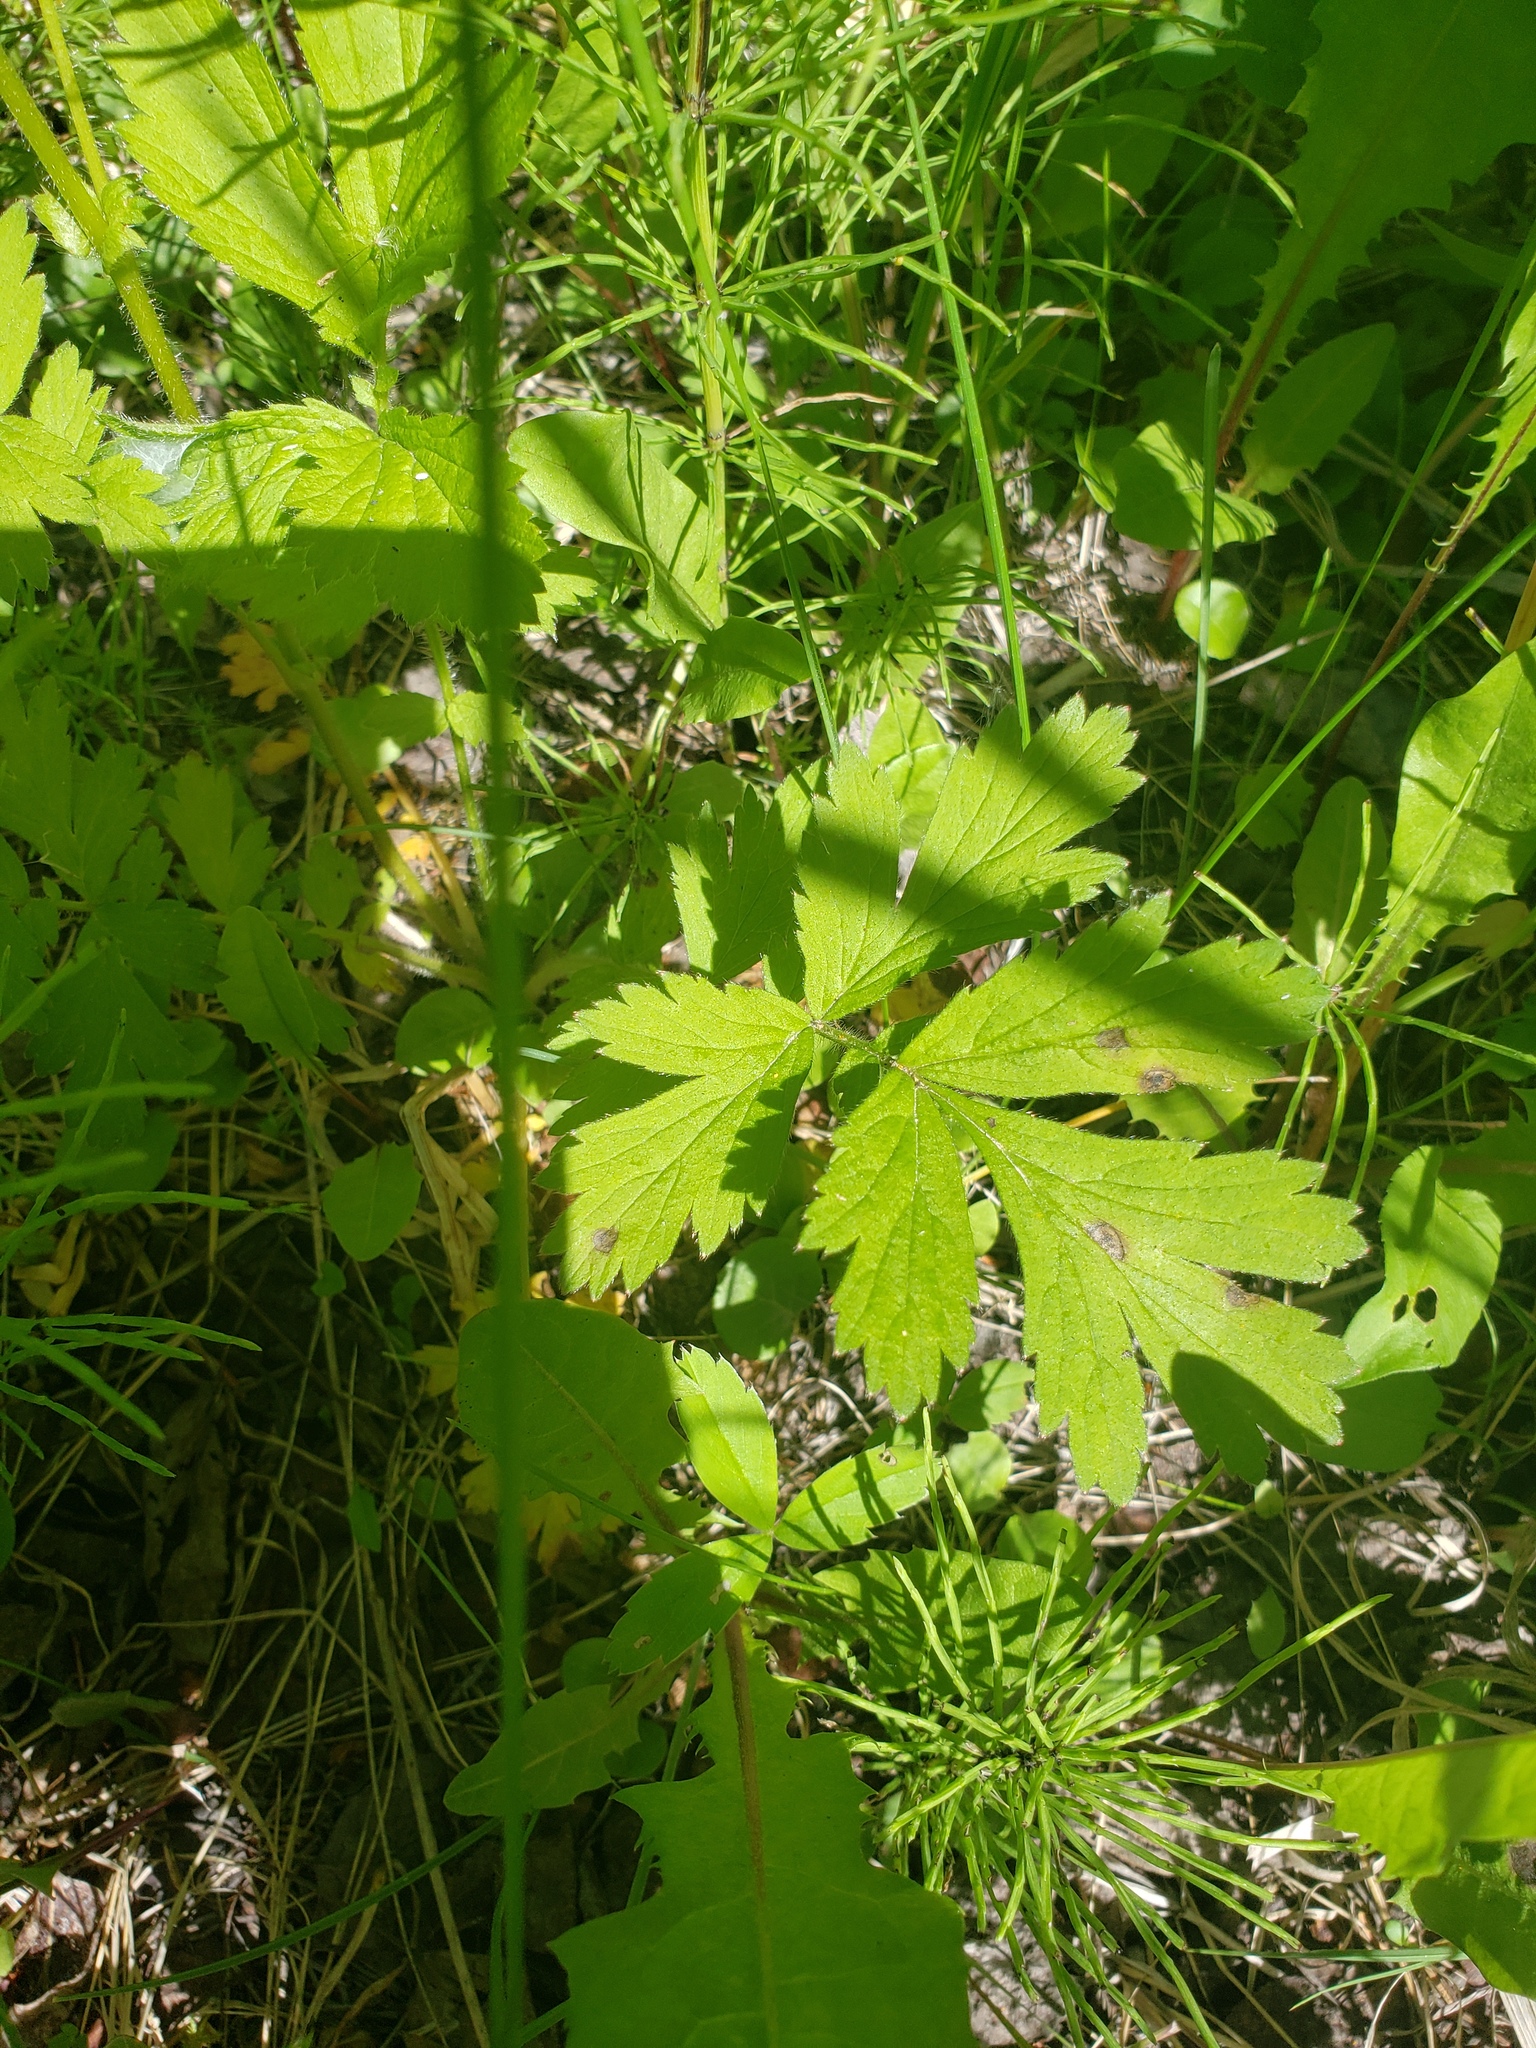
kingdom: Plantae
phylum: Tracheophyta
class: Magnoliopsida
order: Rosales
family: Rosaceae
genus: Geum
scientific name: Geum aleppicum
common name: Yellow avens
